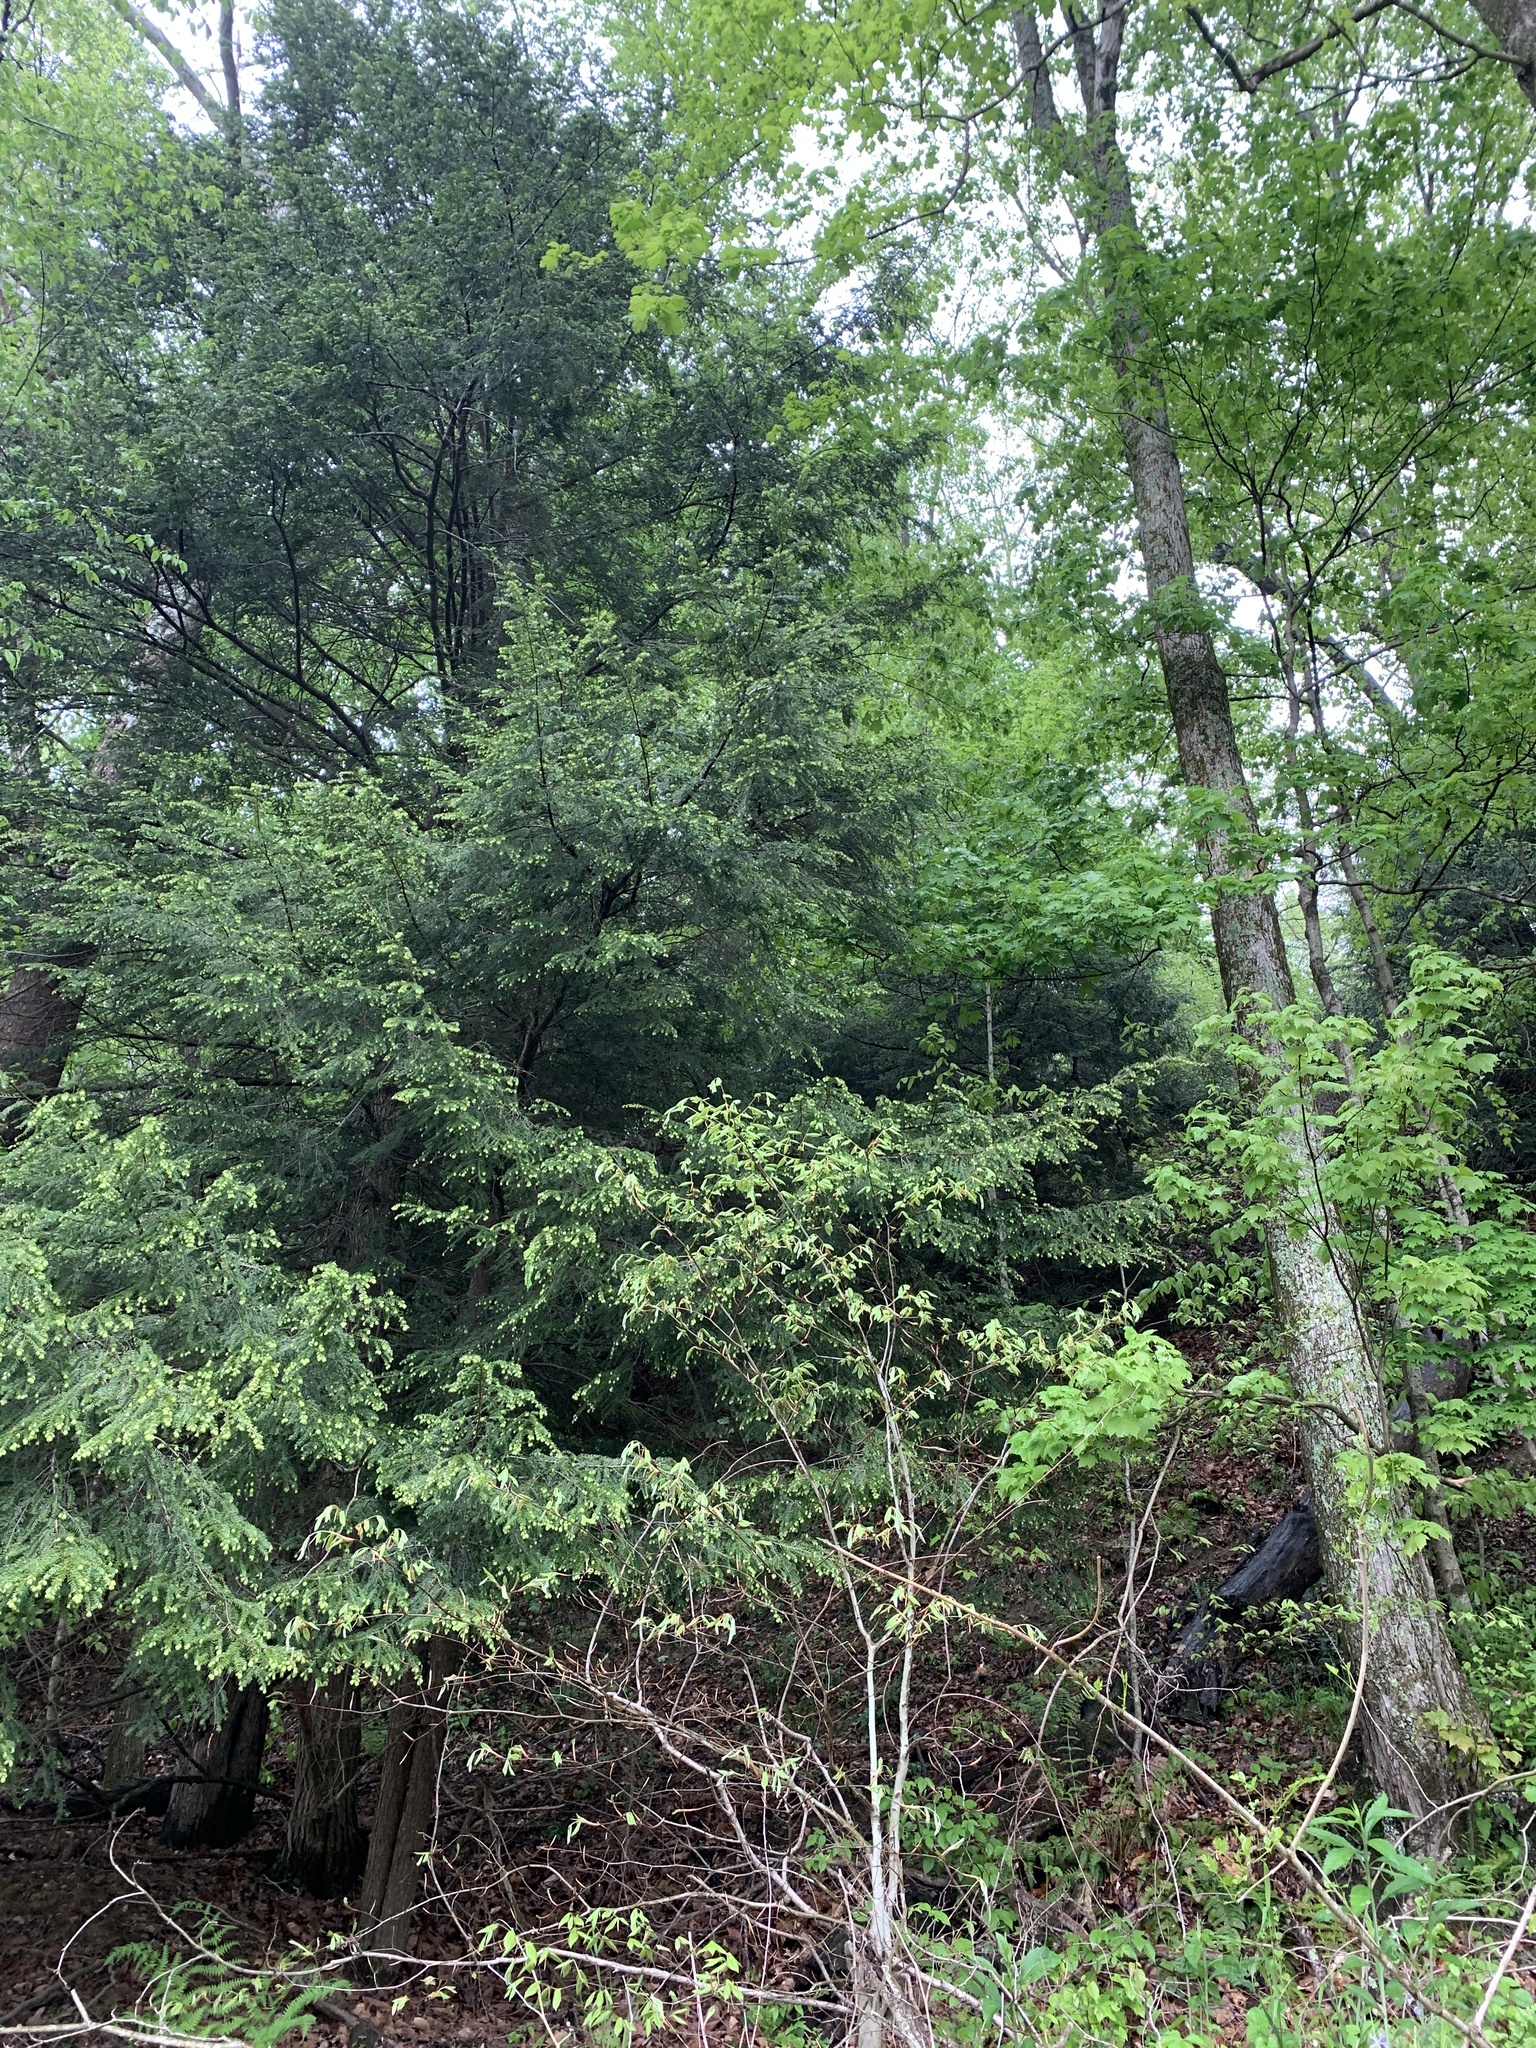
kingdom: Plantae
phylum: Tracheophyta
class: Pinopsida
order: Pinales
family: Pinaceae
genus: Tsuga
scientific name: Tsuga canadensis
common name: Eastern hemlock
